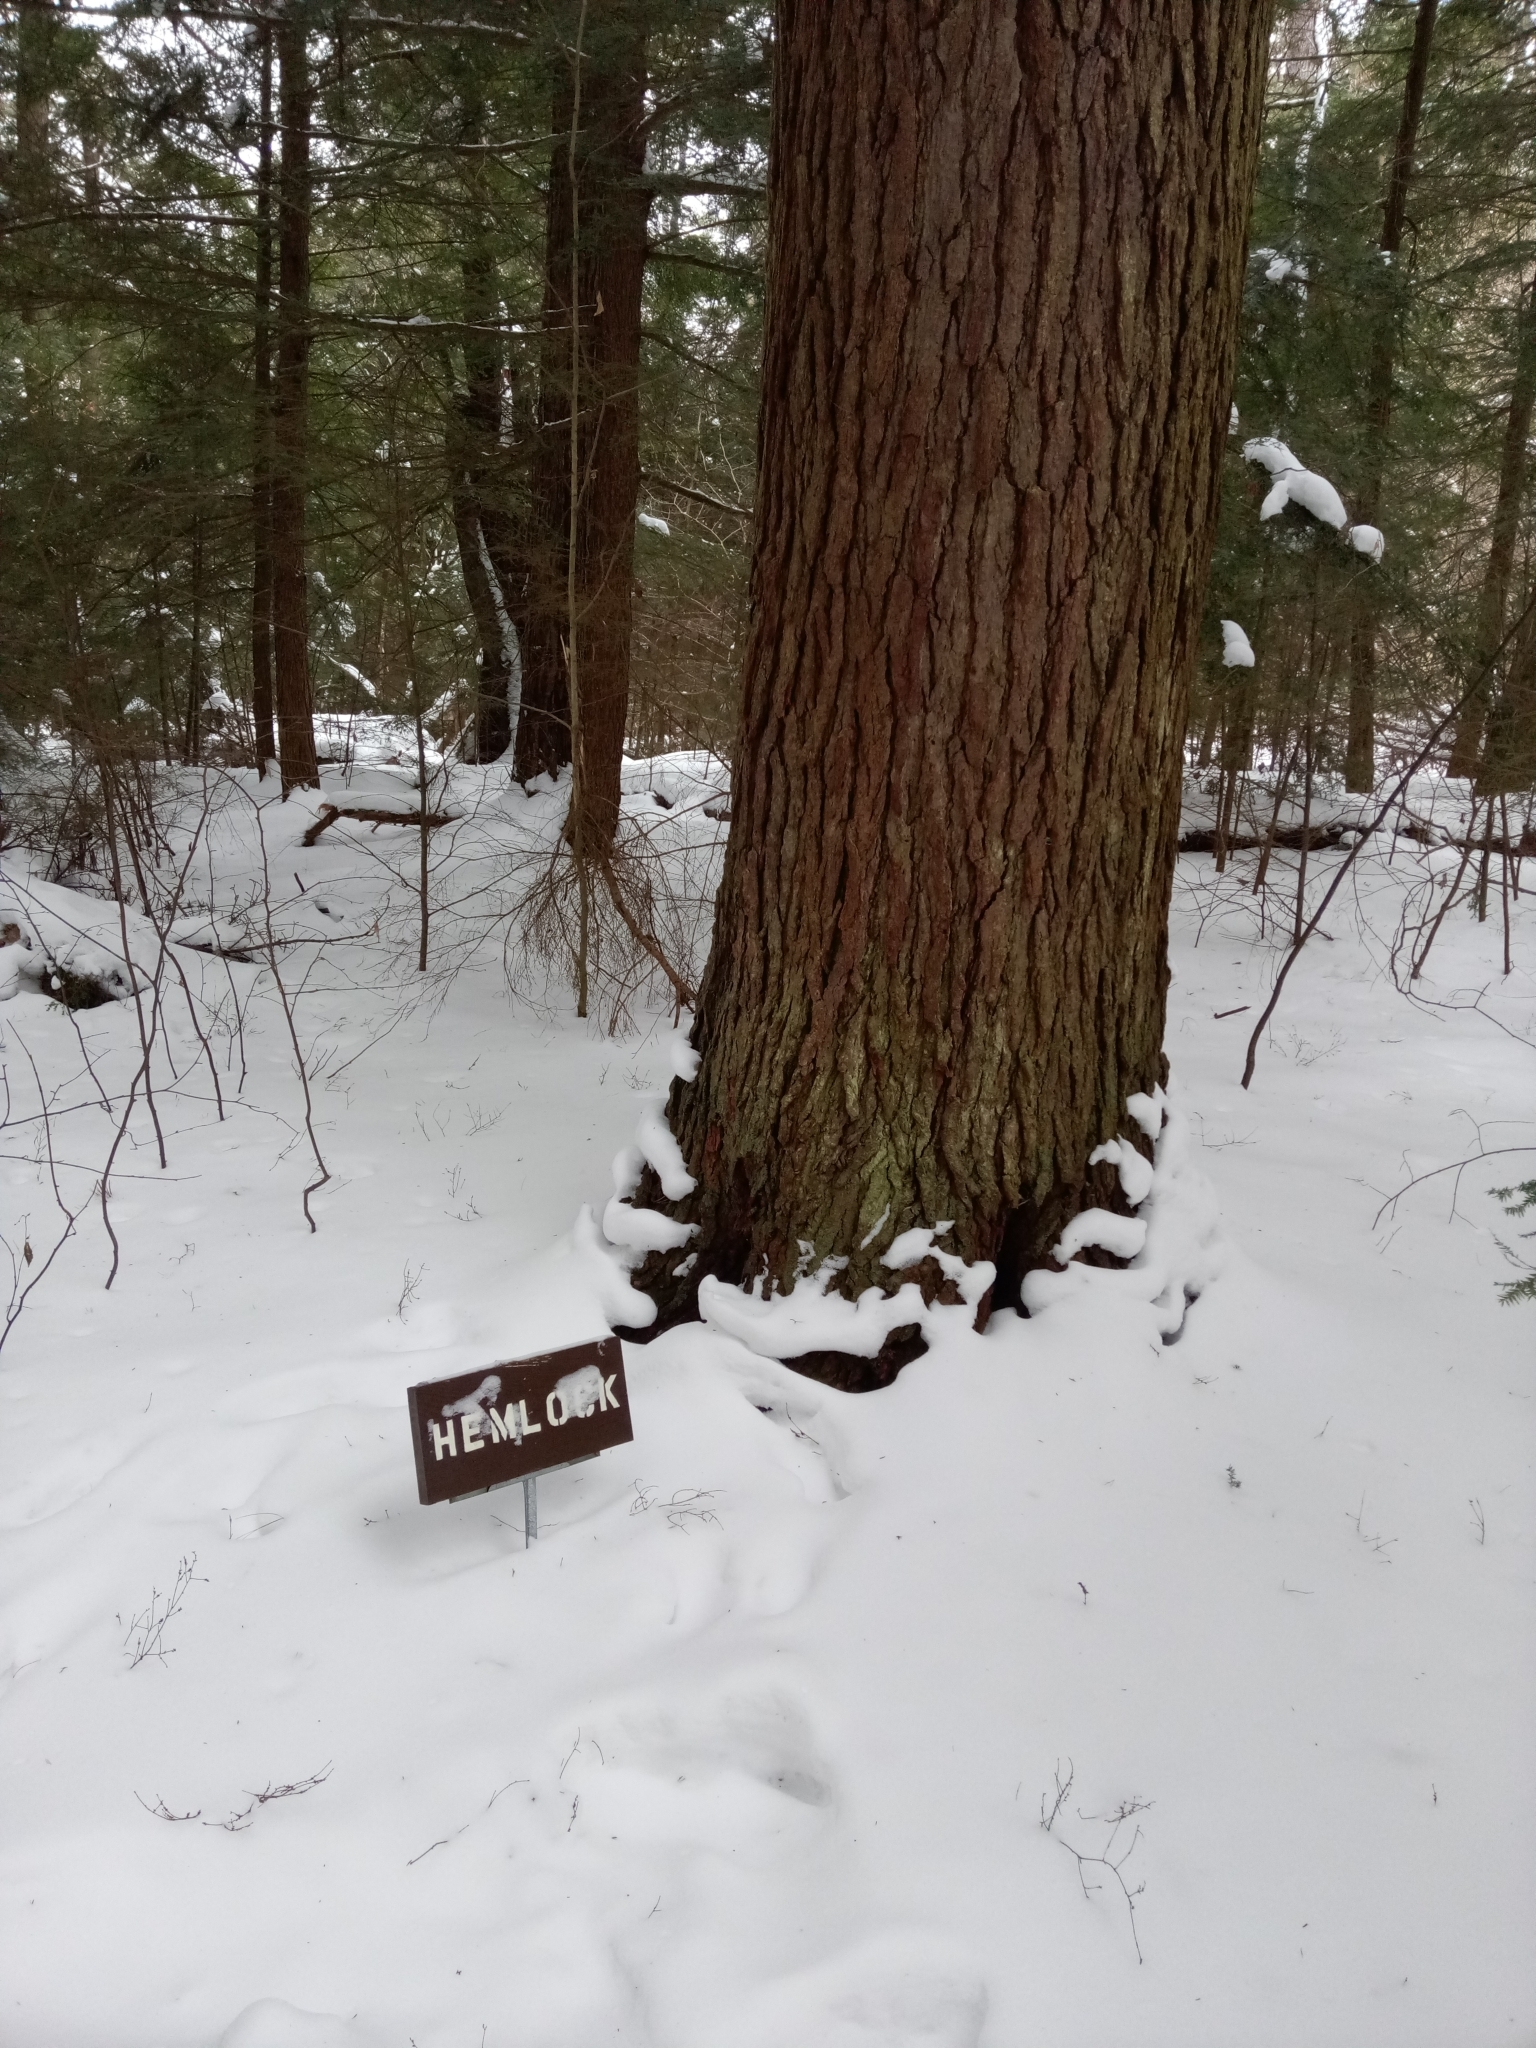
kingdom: Plantae
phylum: Tracheophyta
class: Pinopsida
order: Pinales
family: Pinaceae
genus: Tsuga
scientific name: Tsuga canadensis
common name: Eastern hemlock
